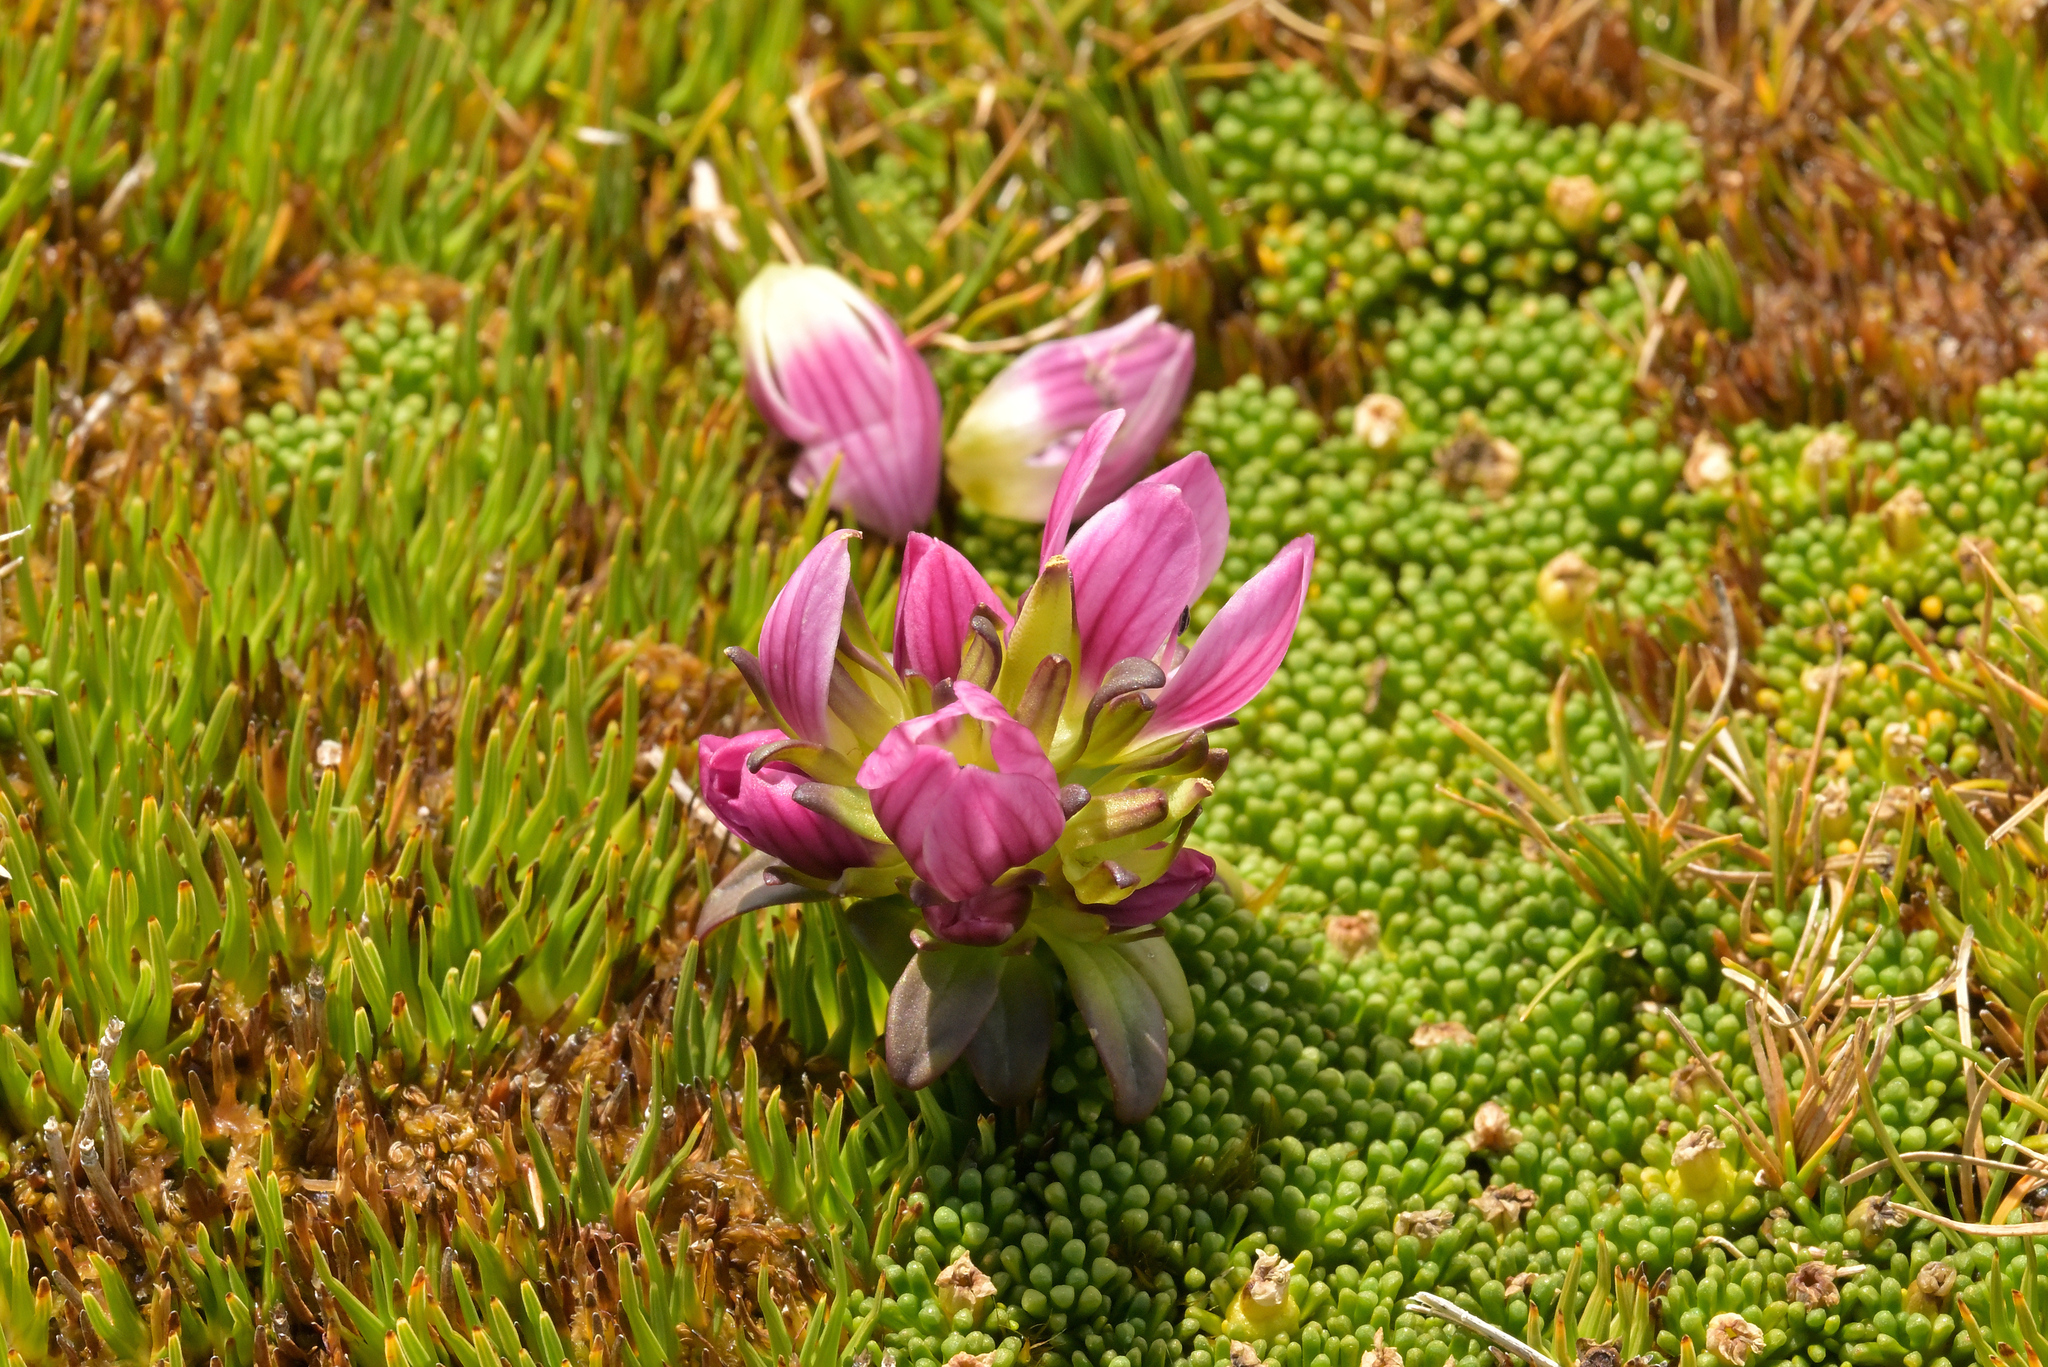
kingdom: Plantae
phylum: Tracheophyta
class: Magnoliopsida
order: Gentianales
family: Gentianaceae
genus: Gentianella
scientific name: Gentianella concinna
